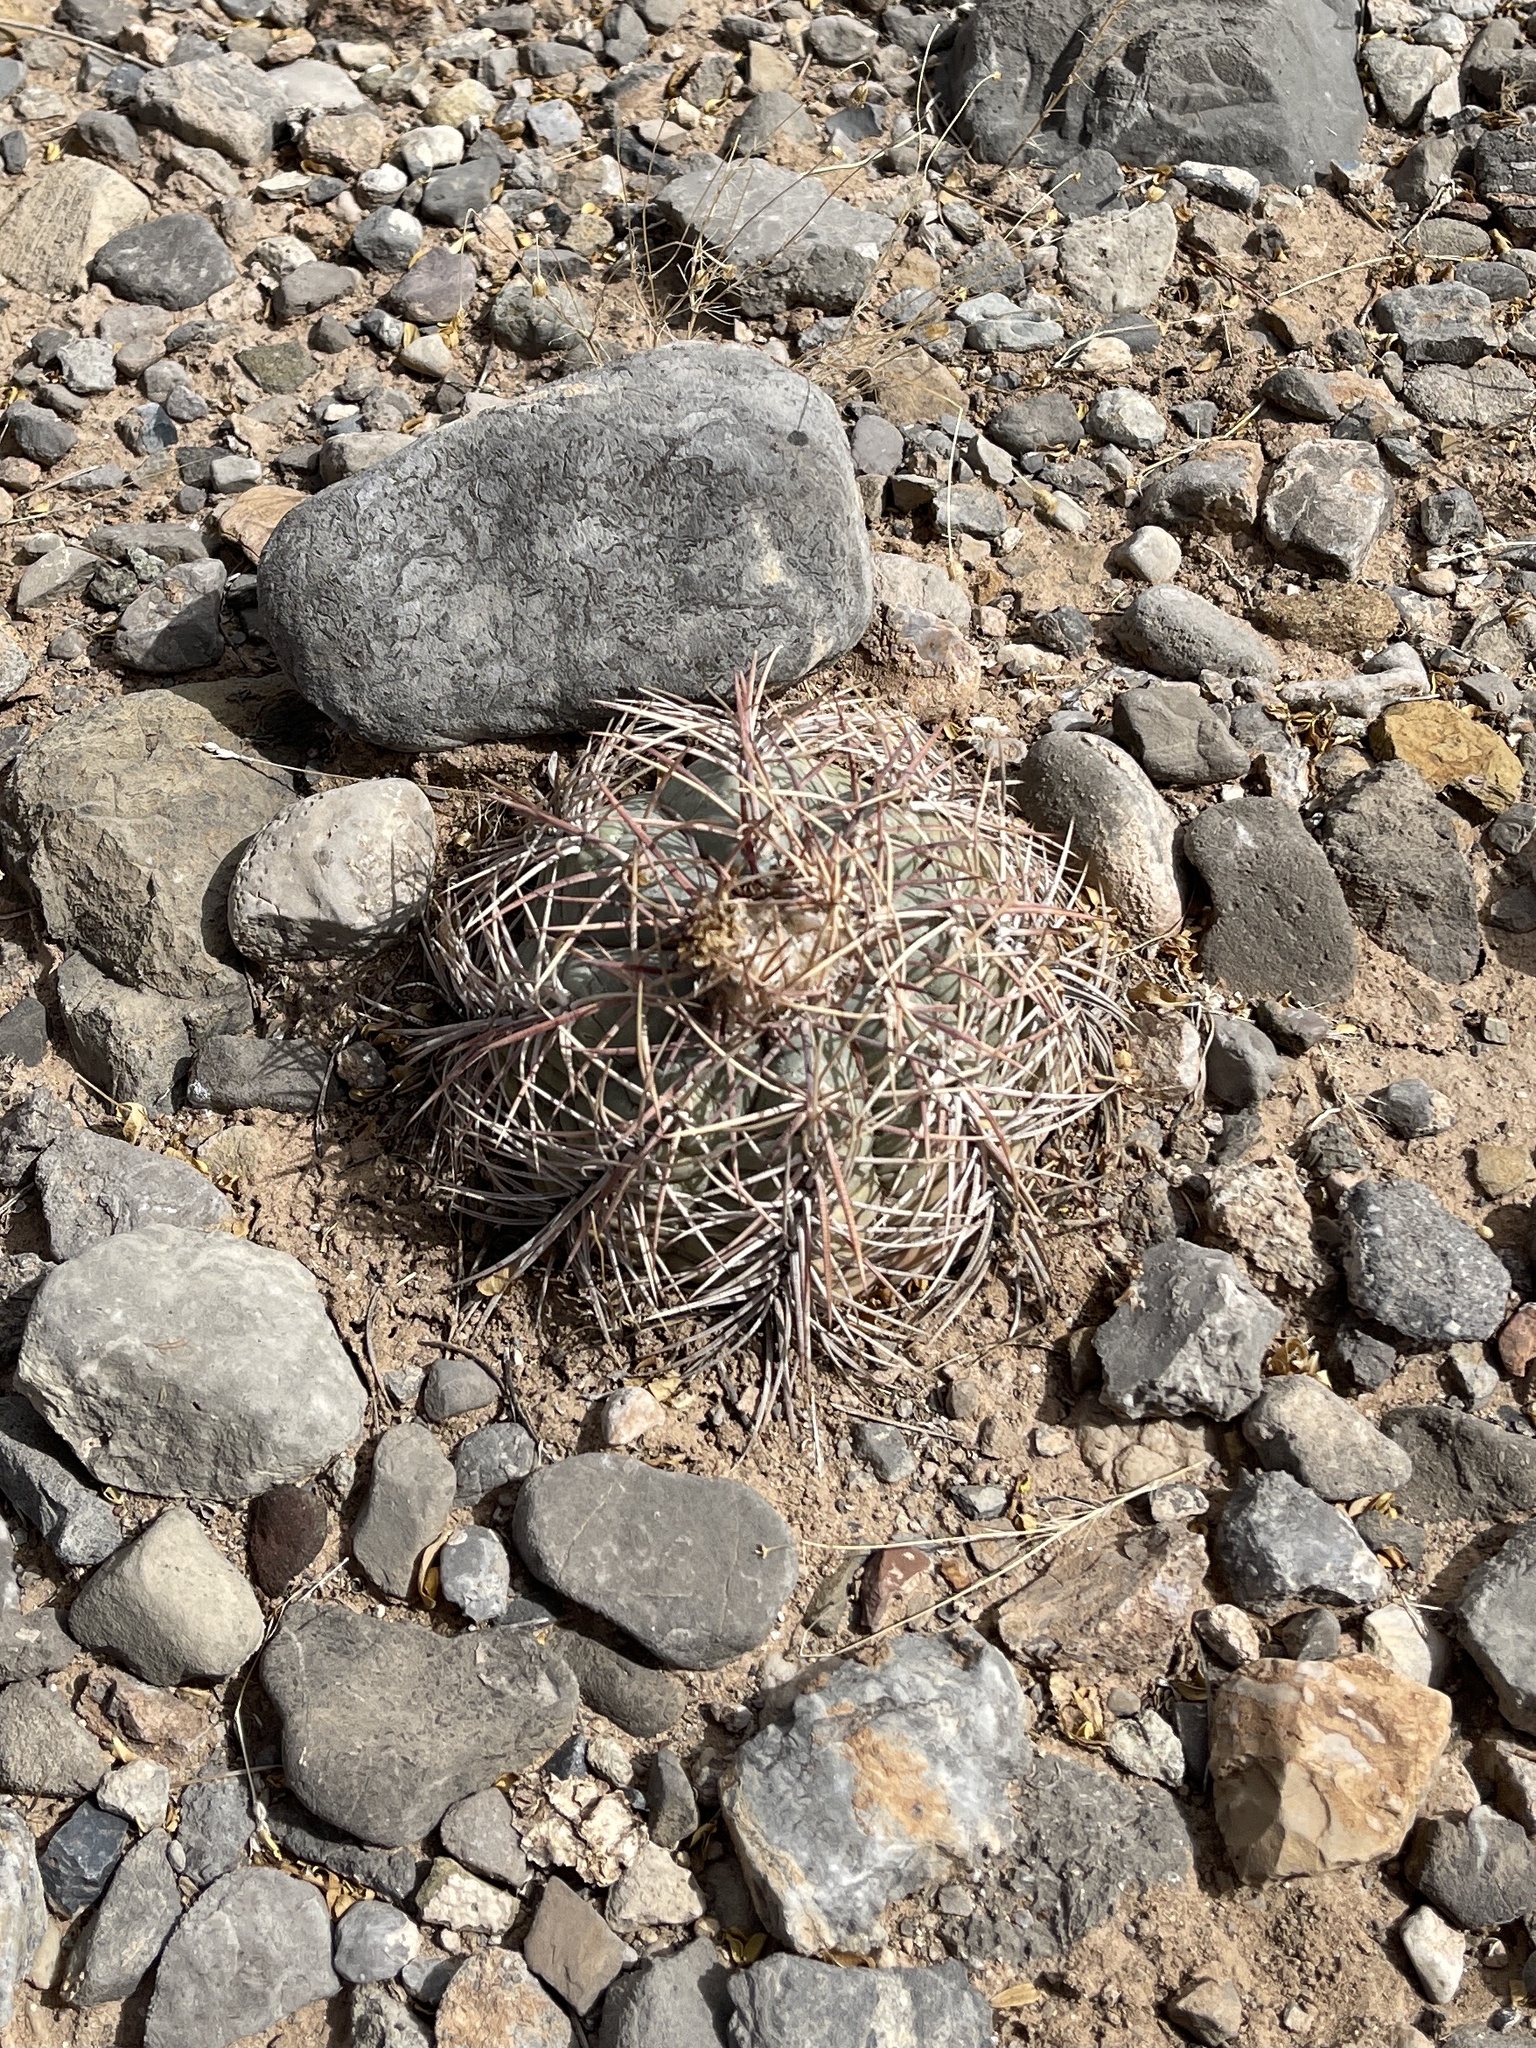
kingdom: Plantae
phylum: Tracheophyta
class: Magnoliopsida
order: Caryophyllales
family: Cactaceae
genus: Echinocactus
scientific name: Echinocactus horizonthalonius
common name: Devilshead
